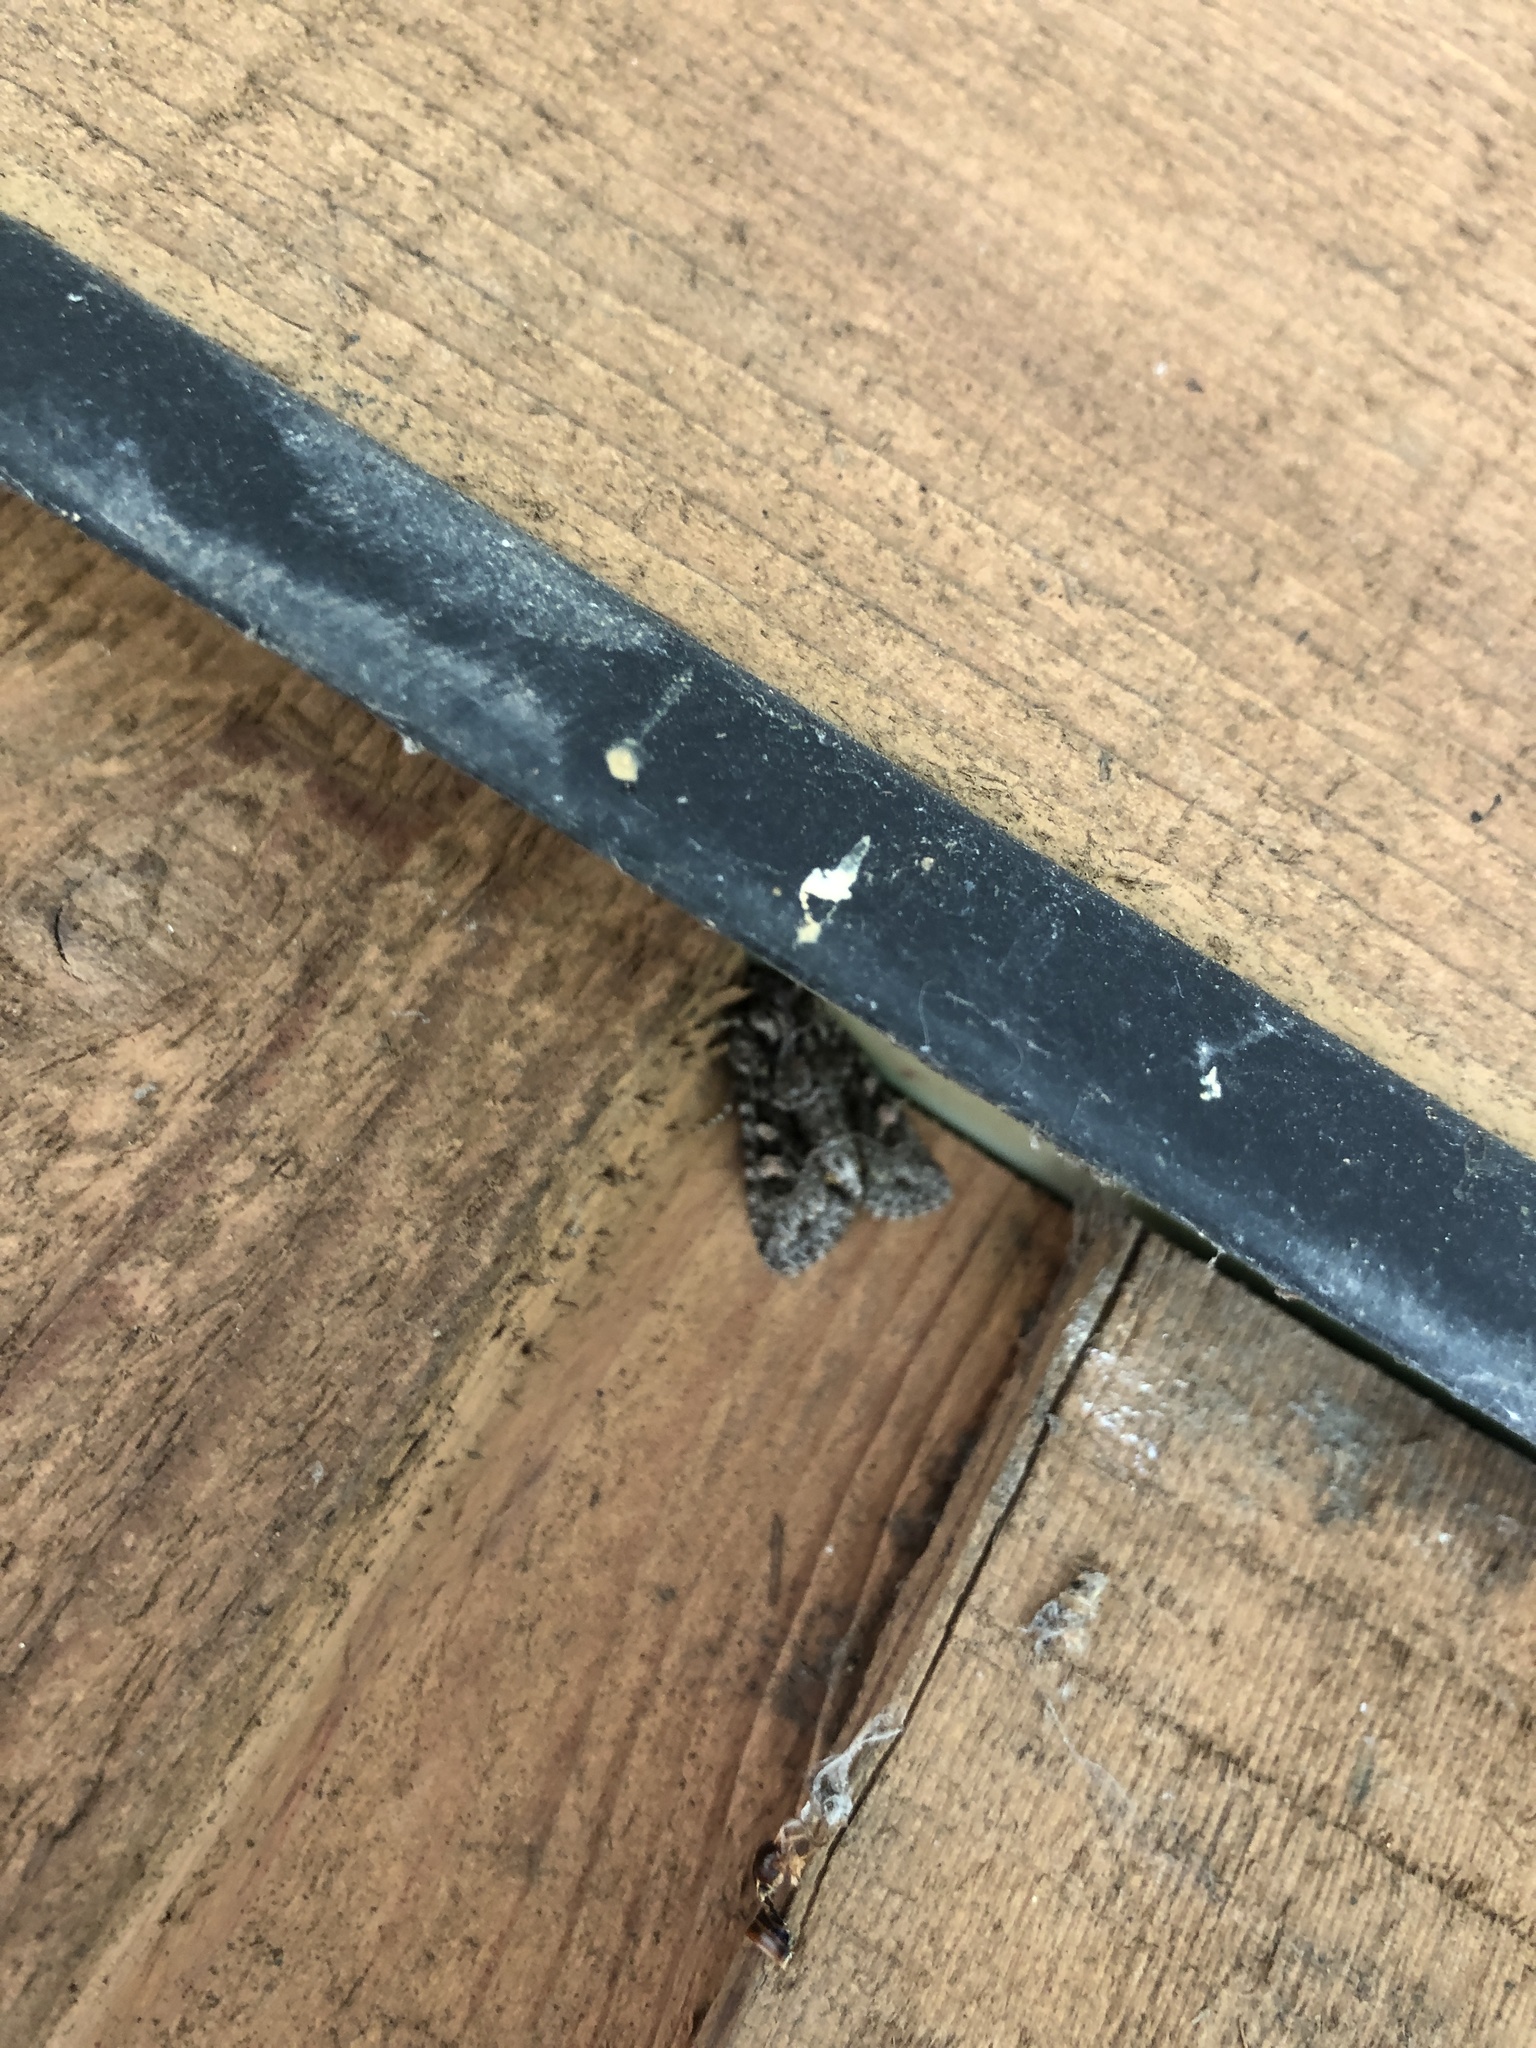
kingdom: Animalia
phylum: Arthropoda
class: Insecta
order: Lepidoptera
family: Noctuidae
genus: Lacinipolia
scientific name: Lacinipolia cuneata
